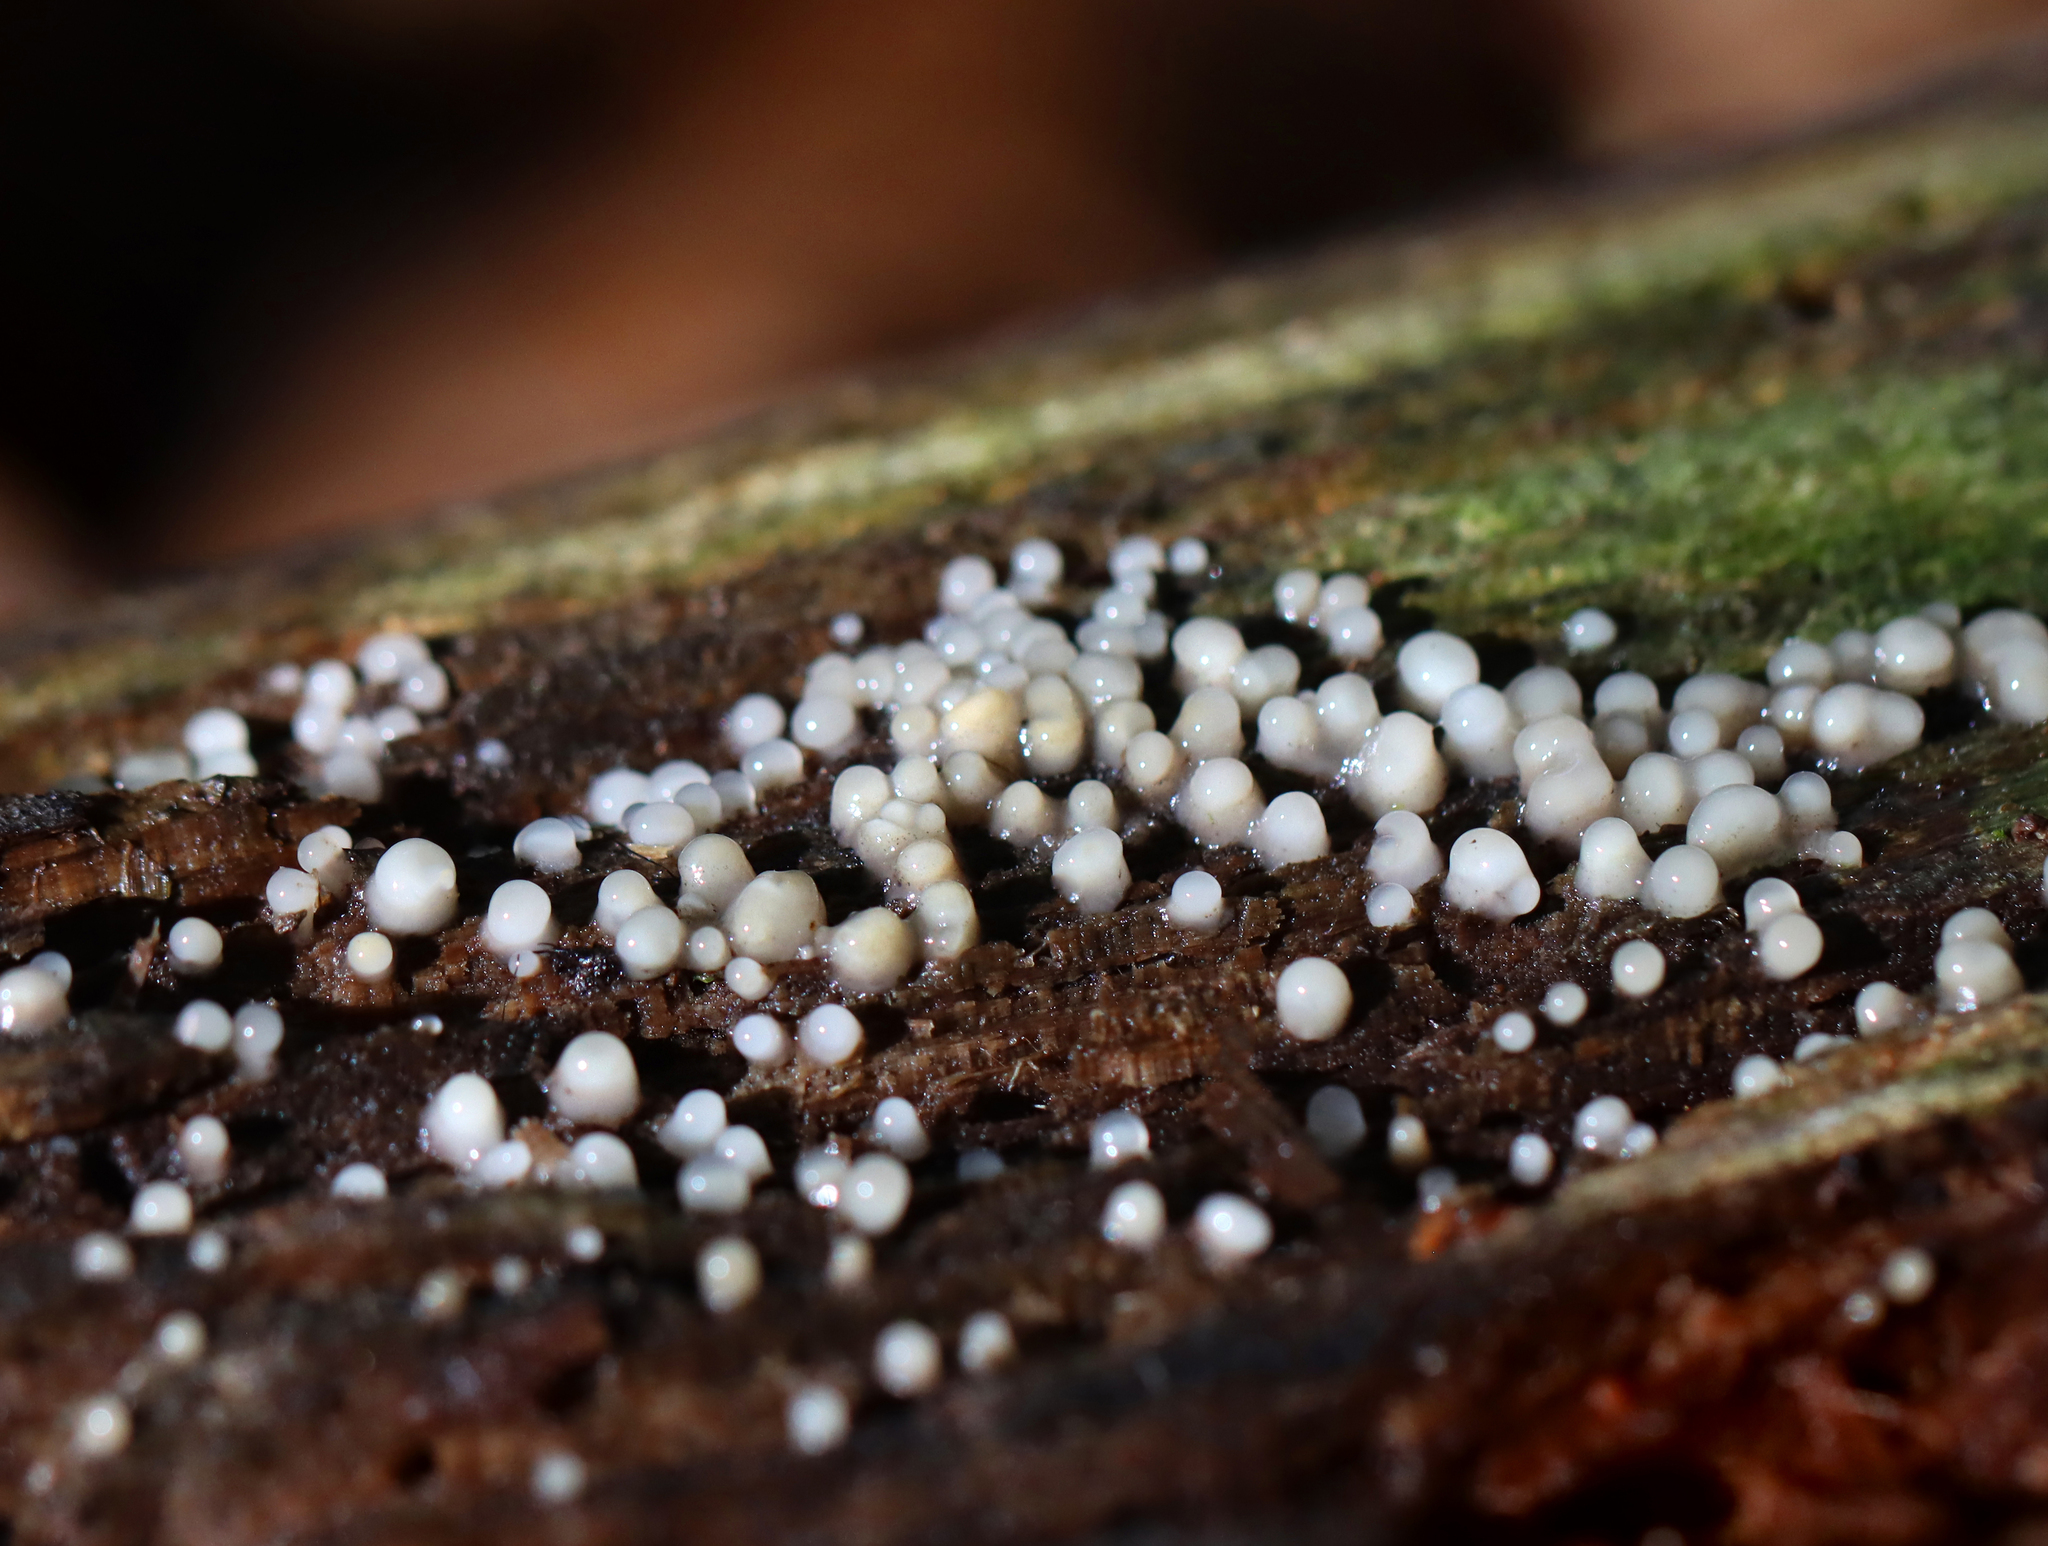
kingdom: Fungi
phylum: Basidiomycota
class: Atractiellomycetes
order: Atractiellales
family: Phleogenaceae
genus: Helicogloea
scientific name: Helicogloea compressa
